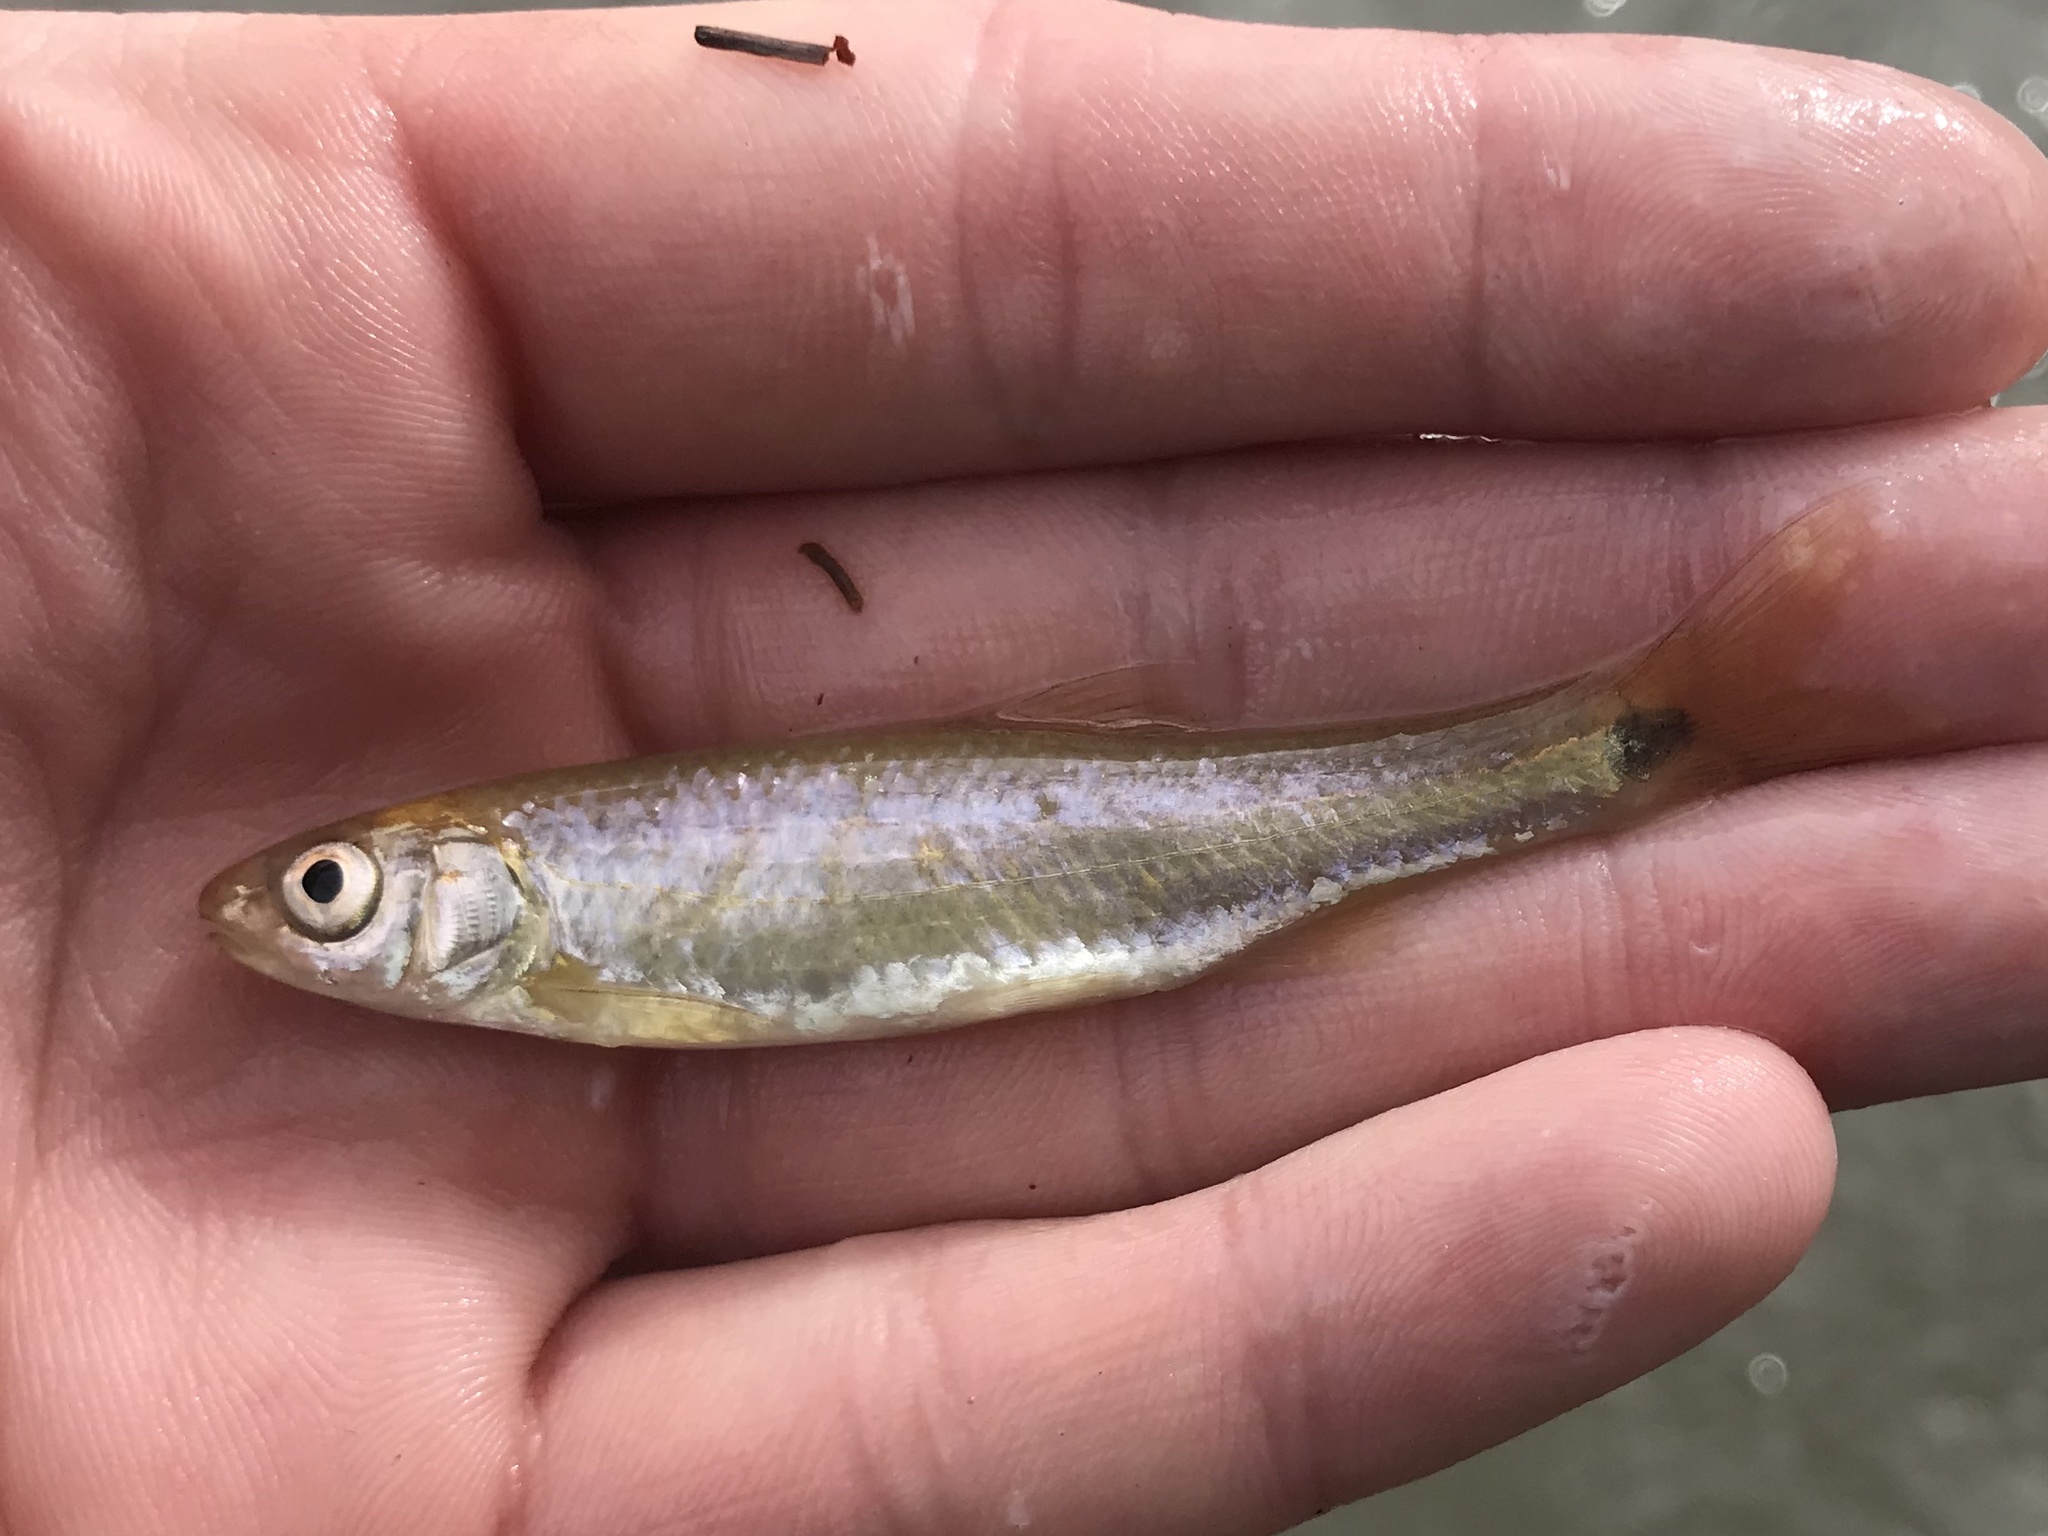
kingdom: Animalia
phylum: Chordata
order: Cypriniformes
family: Cyprinidae
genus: Cyprinella
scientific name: Cyprinella venusta
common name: Blacktail shiner
